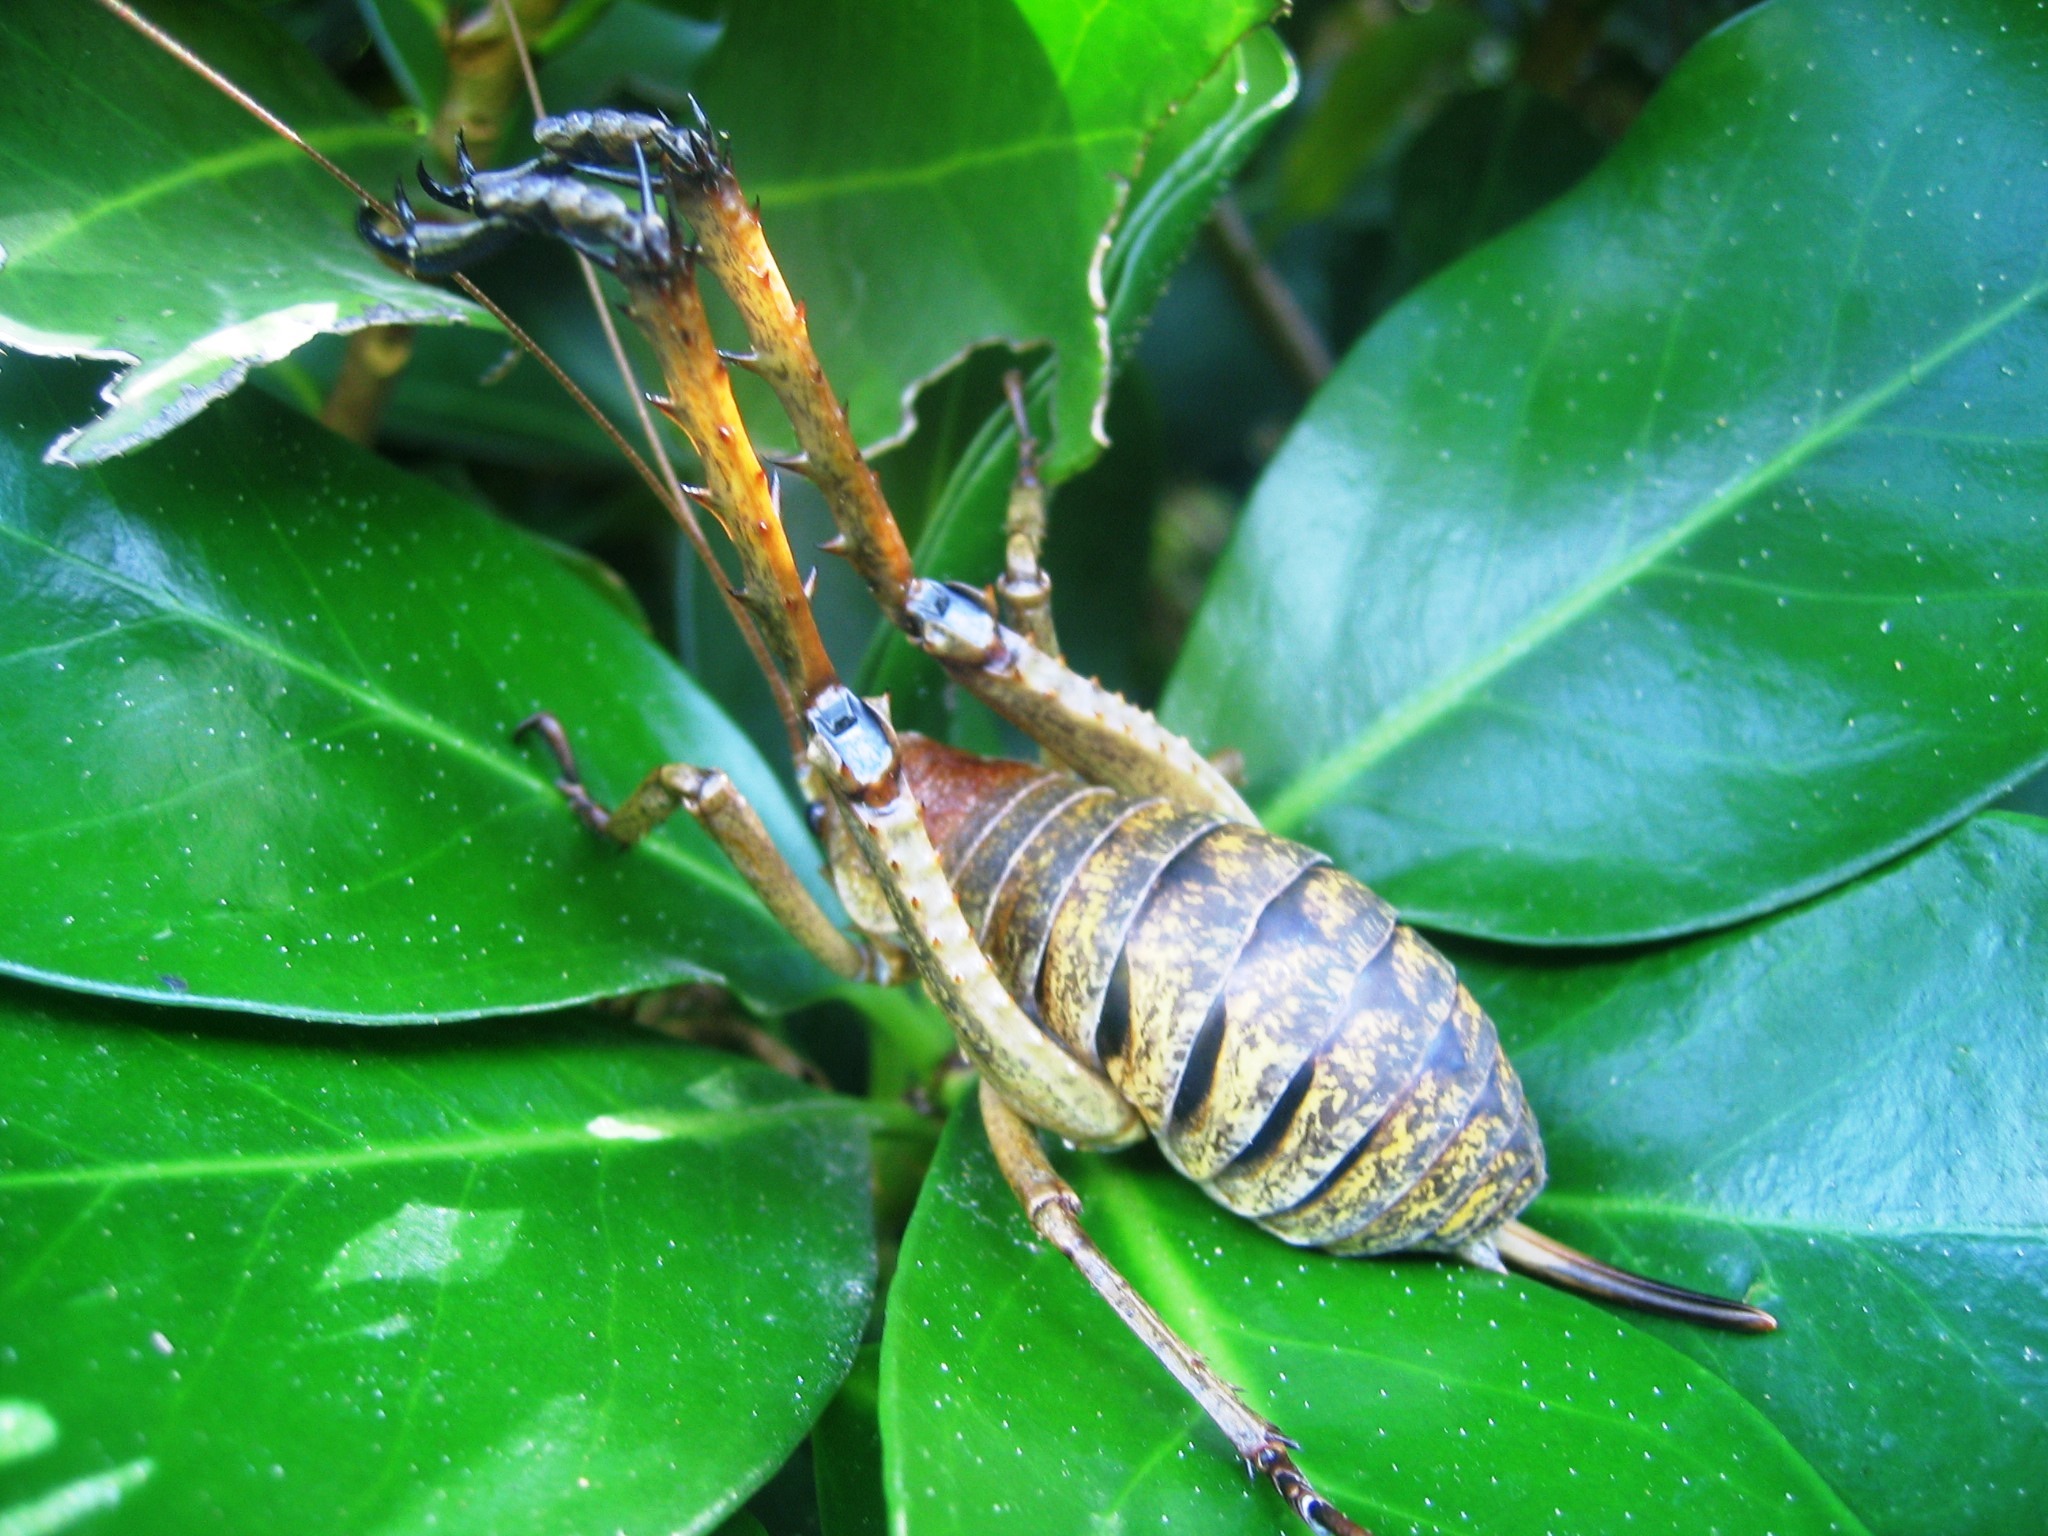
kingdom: Animalia
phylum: Arthropoda
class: Insecta
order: Orthoptera
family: Anostostomatidae
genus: Deinacrida
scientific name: Deinacrida heteracantha
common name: Wetapunga
